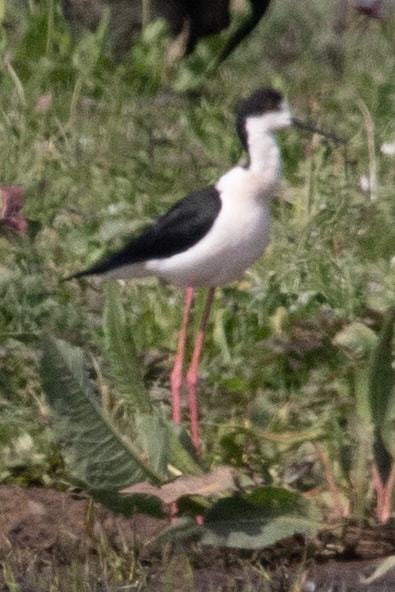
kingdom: Animalia
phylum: Chordata
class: Aves
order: Charadriiformes
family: Recurvirostridae
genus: Himantopus
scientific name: Himantopus himantopus
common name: Black-winged stilt
